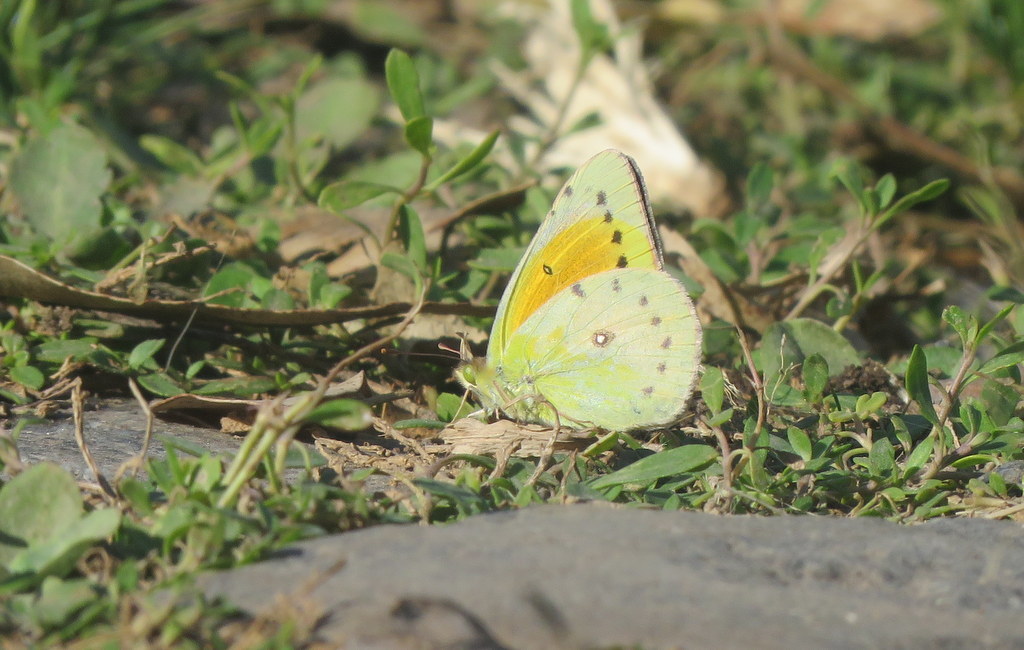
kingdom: Animalia
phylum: Arthropoda
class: Insecta
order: Lepidoptera
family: Pieridae
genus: Colias
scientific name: Colias lesbia
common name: Lesbia clouded yellow
